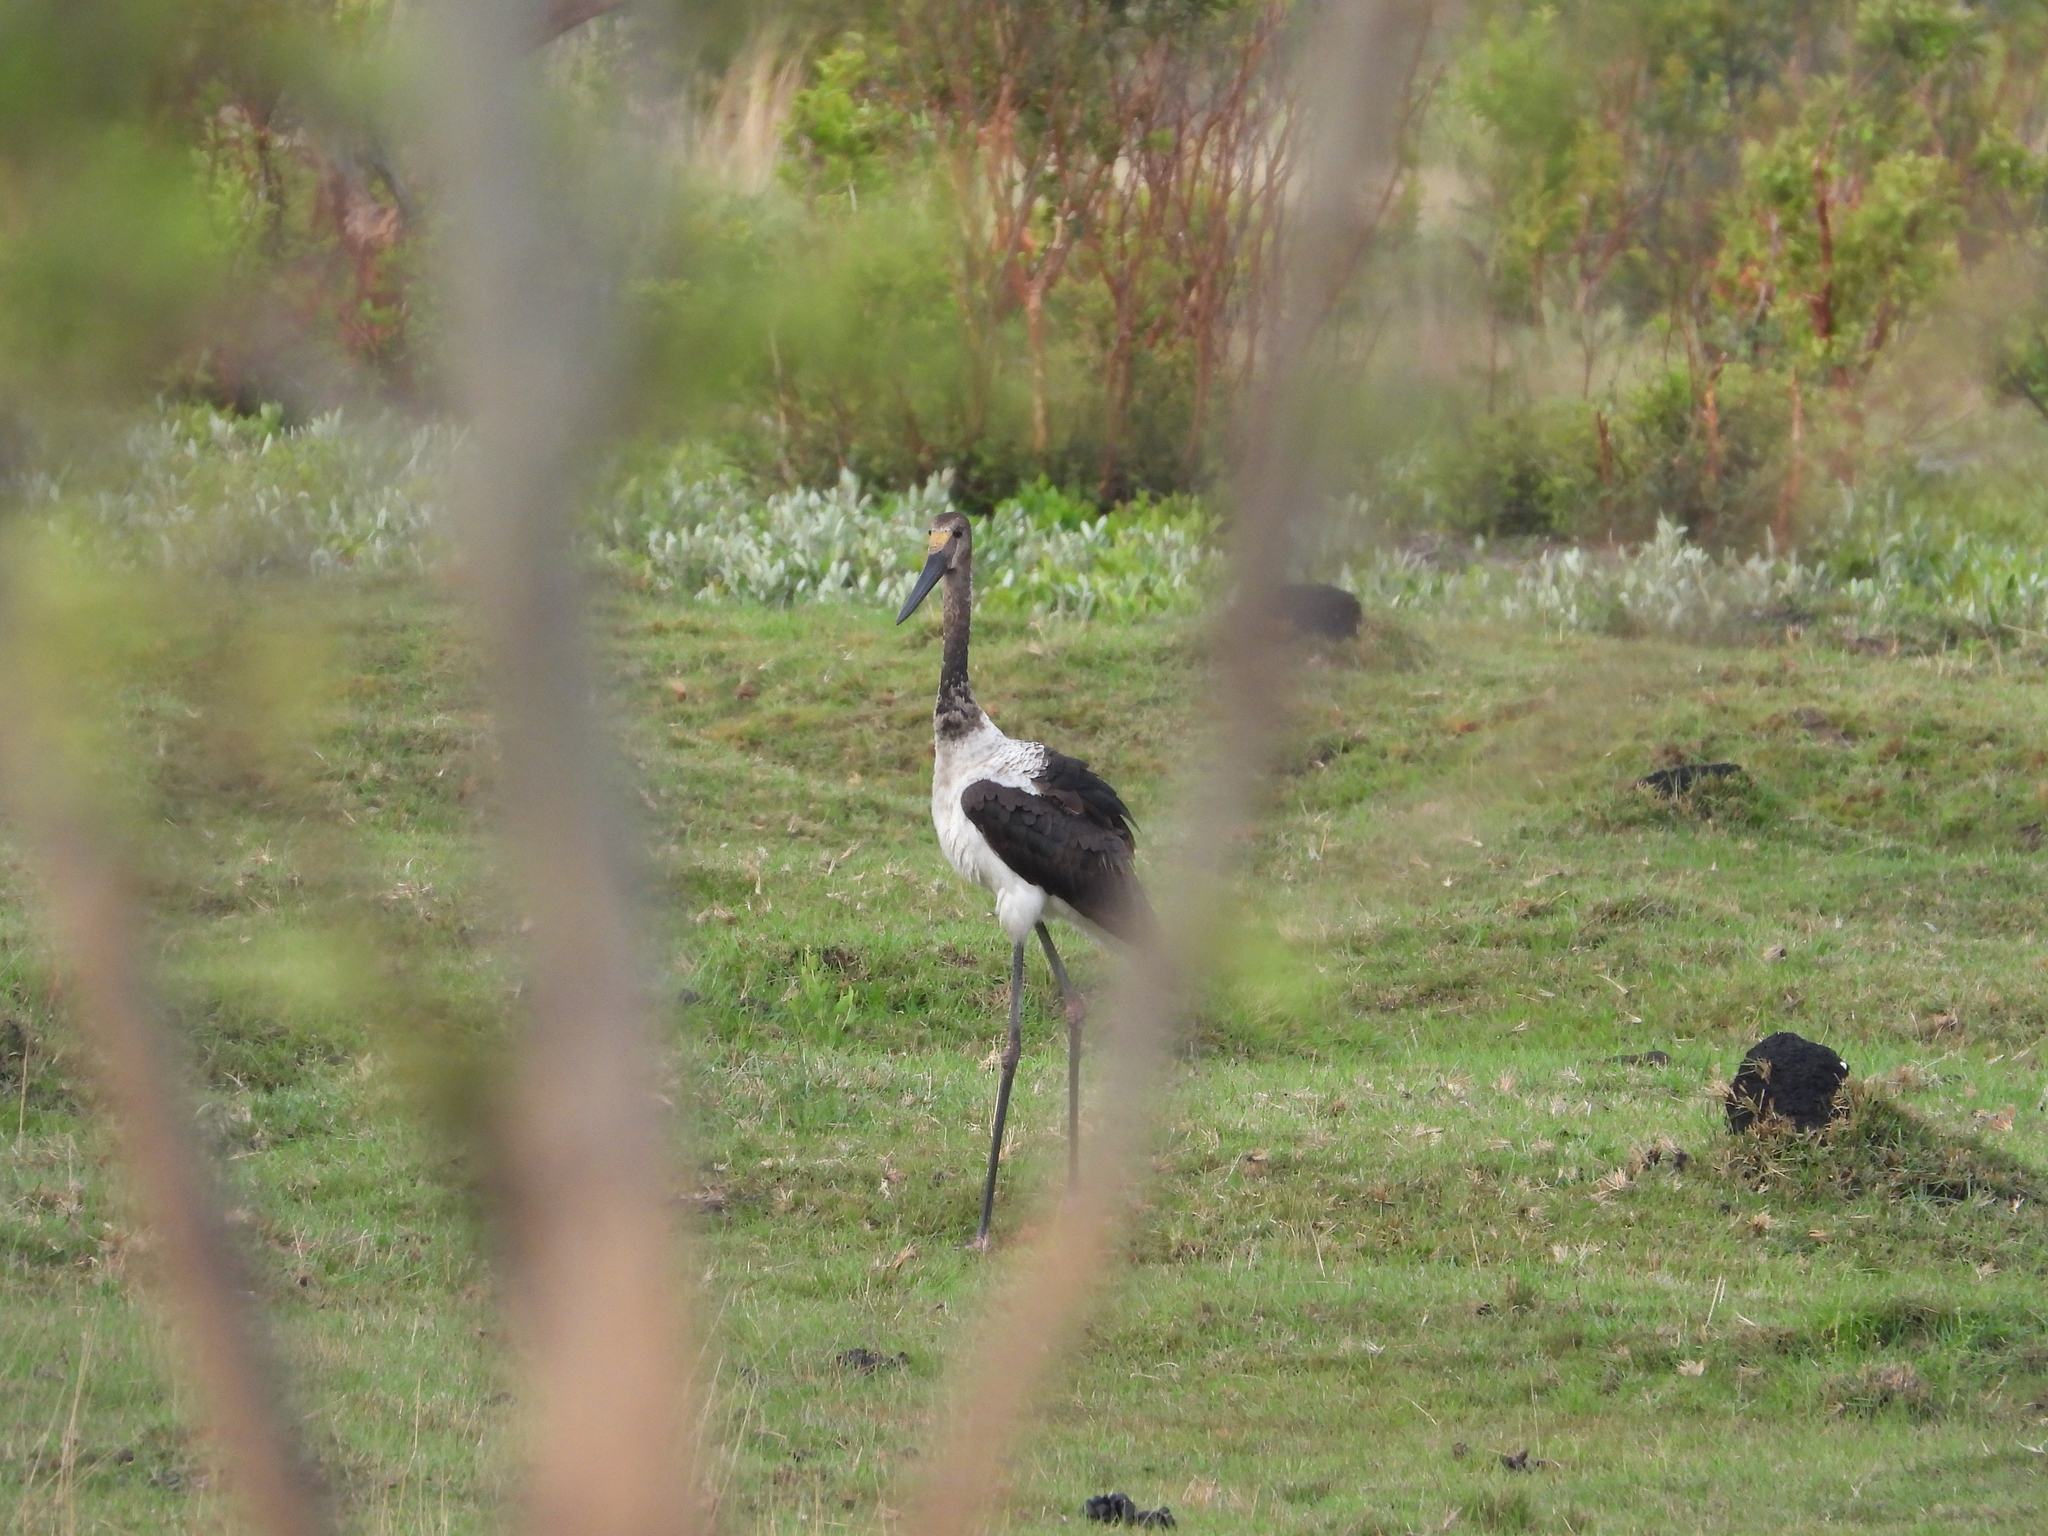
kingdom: Animalia
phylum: Chordata
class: Aves
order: Ciconiiformes
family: Ciconiidae
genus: Ephippiorhynchus
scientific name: Ephippiorhynchus senegalensis
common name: Saddle-billed stork
